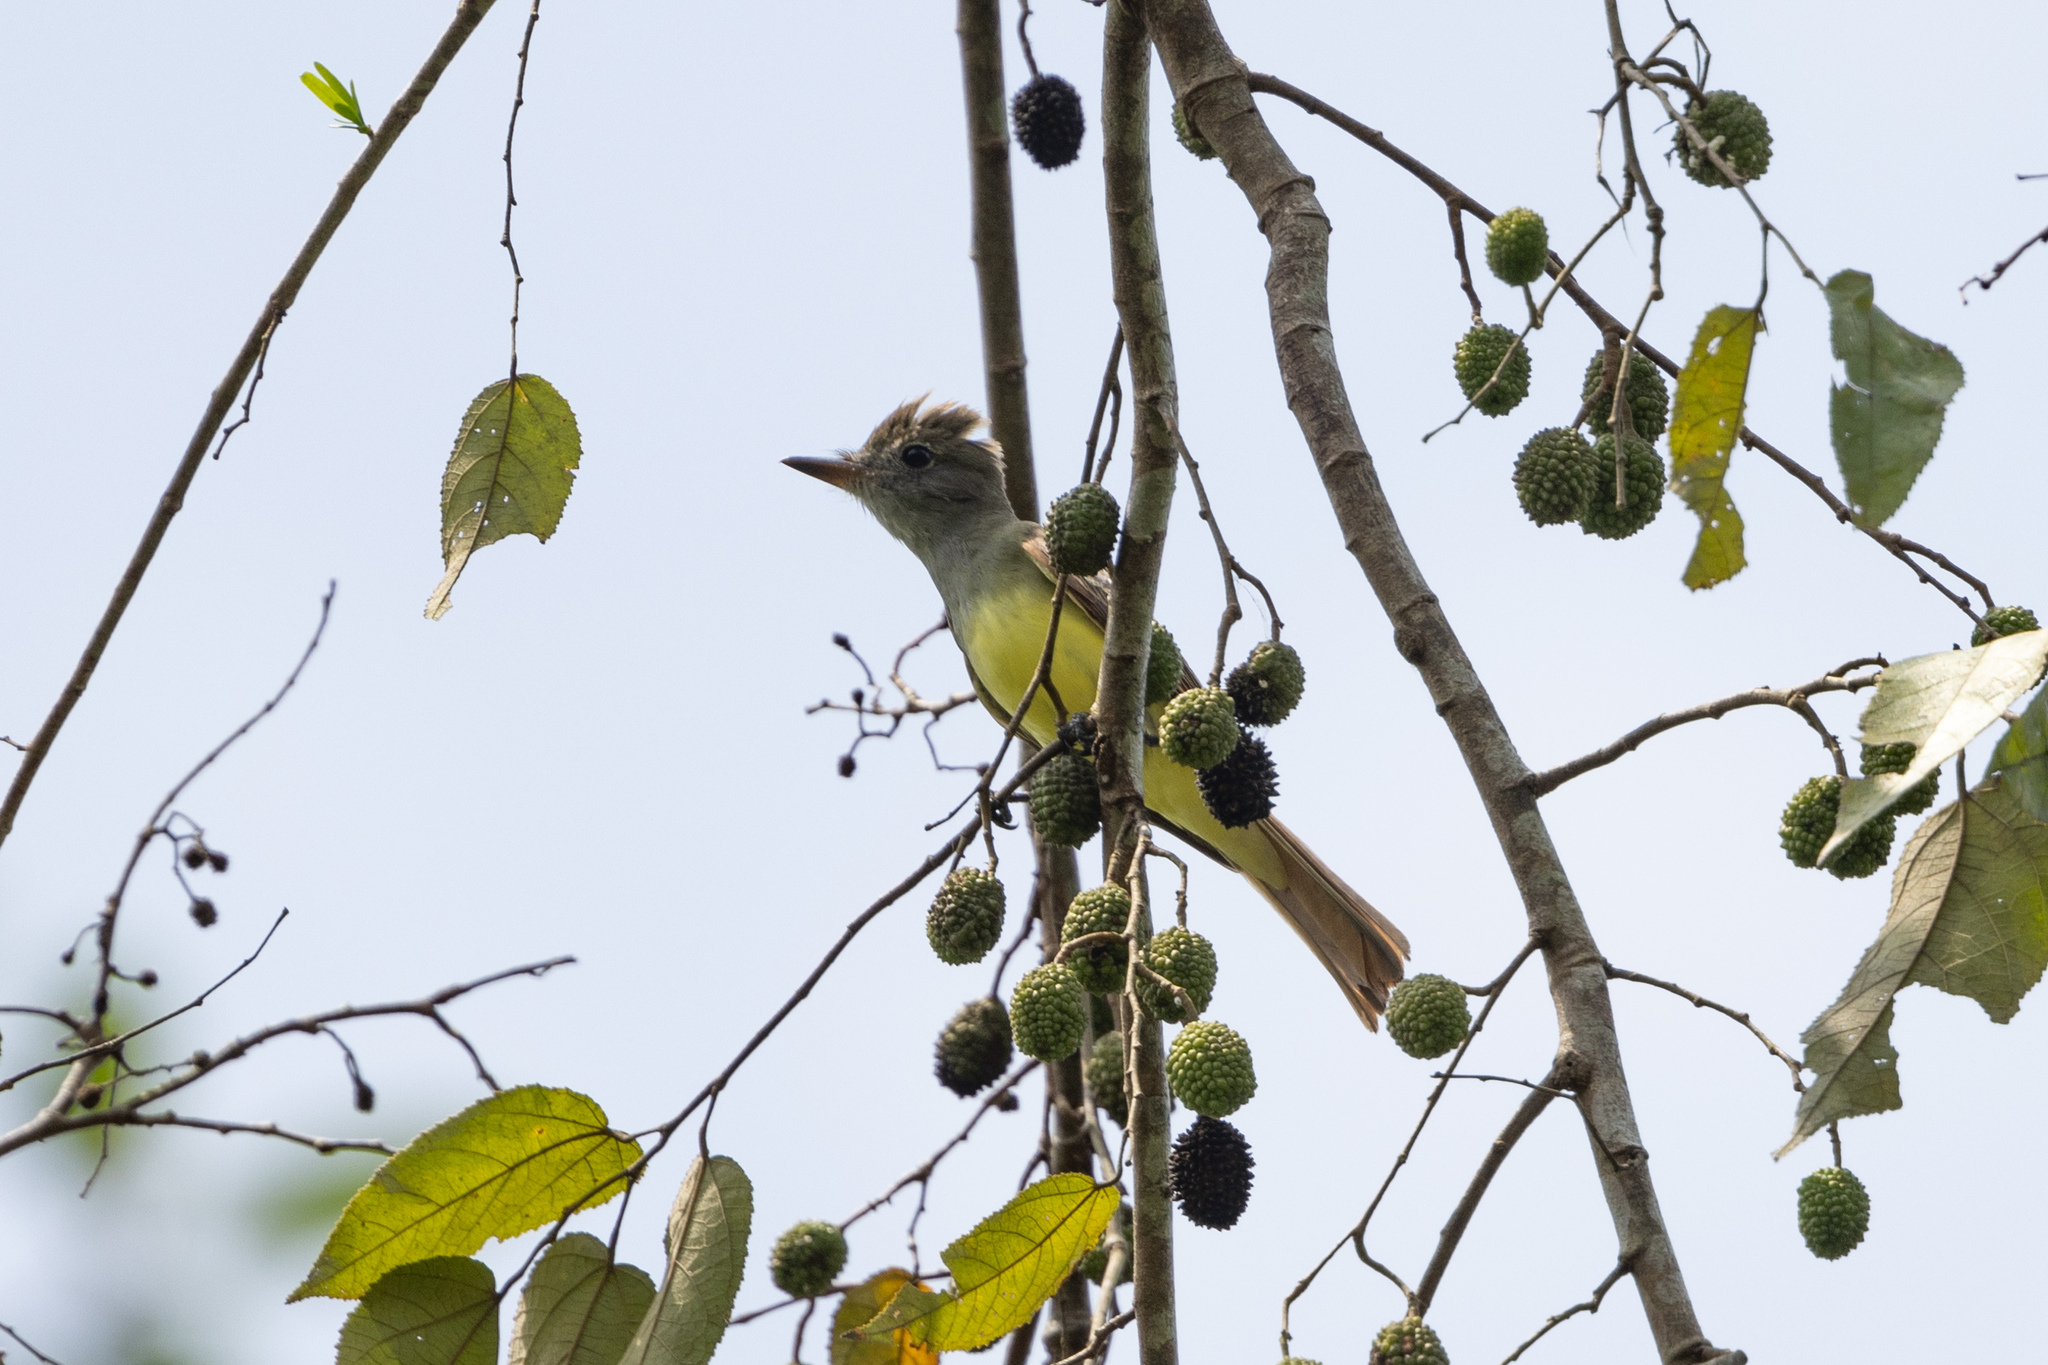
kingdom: Animalia
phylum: Chordata
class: Aves
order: Passeriformes
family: Tyrannidae
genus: Myiarchus
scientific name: Myiarchus crinitus
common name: Great crested flycatcher
